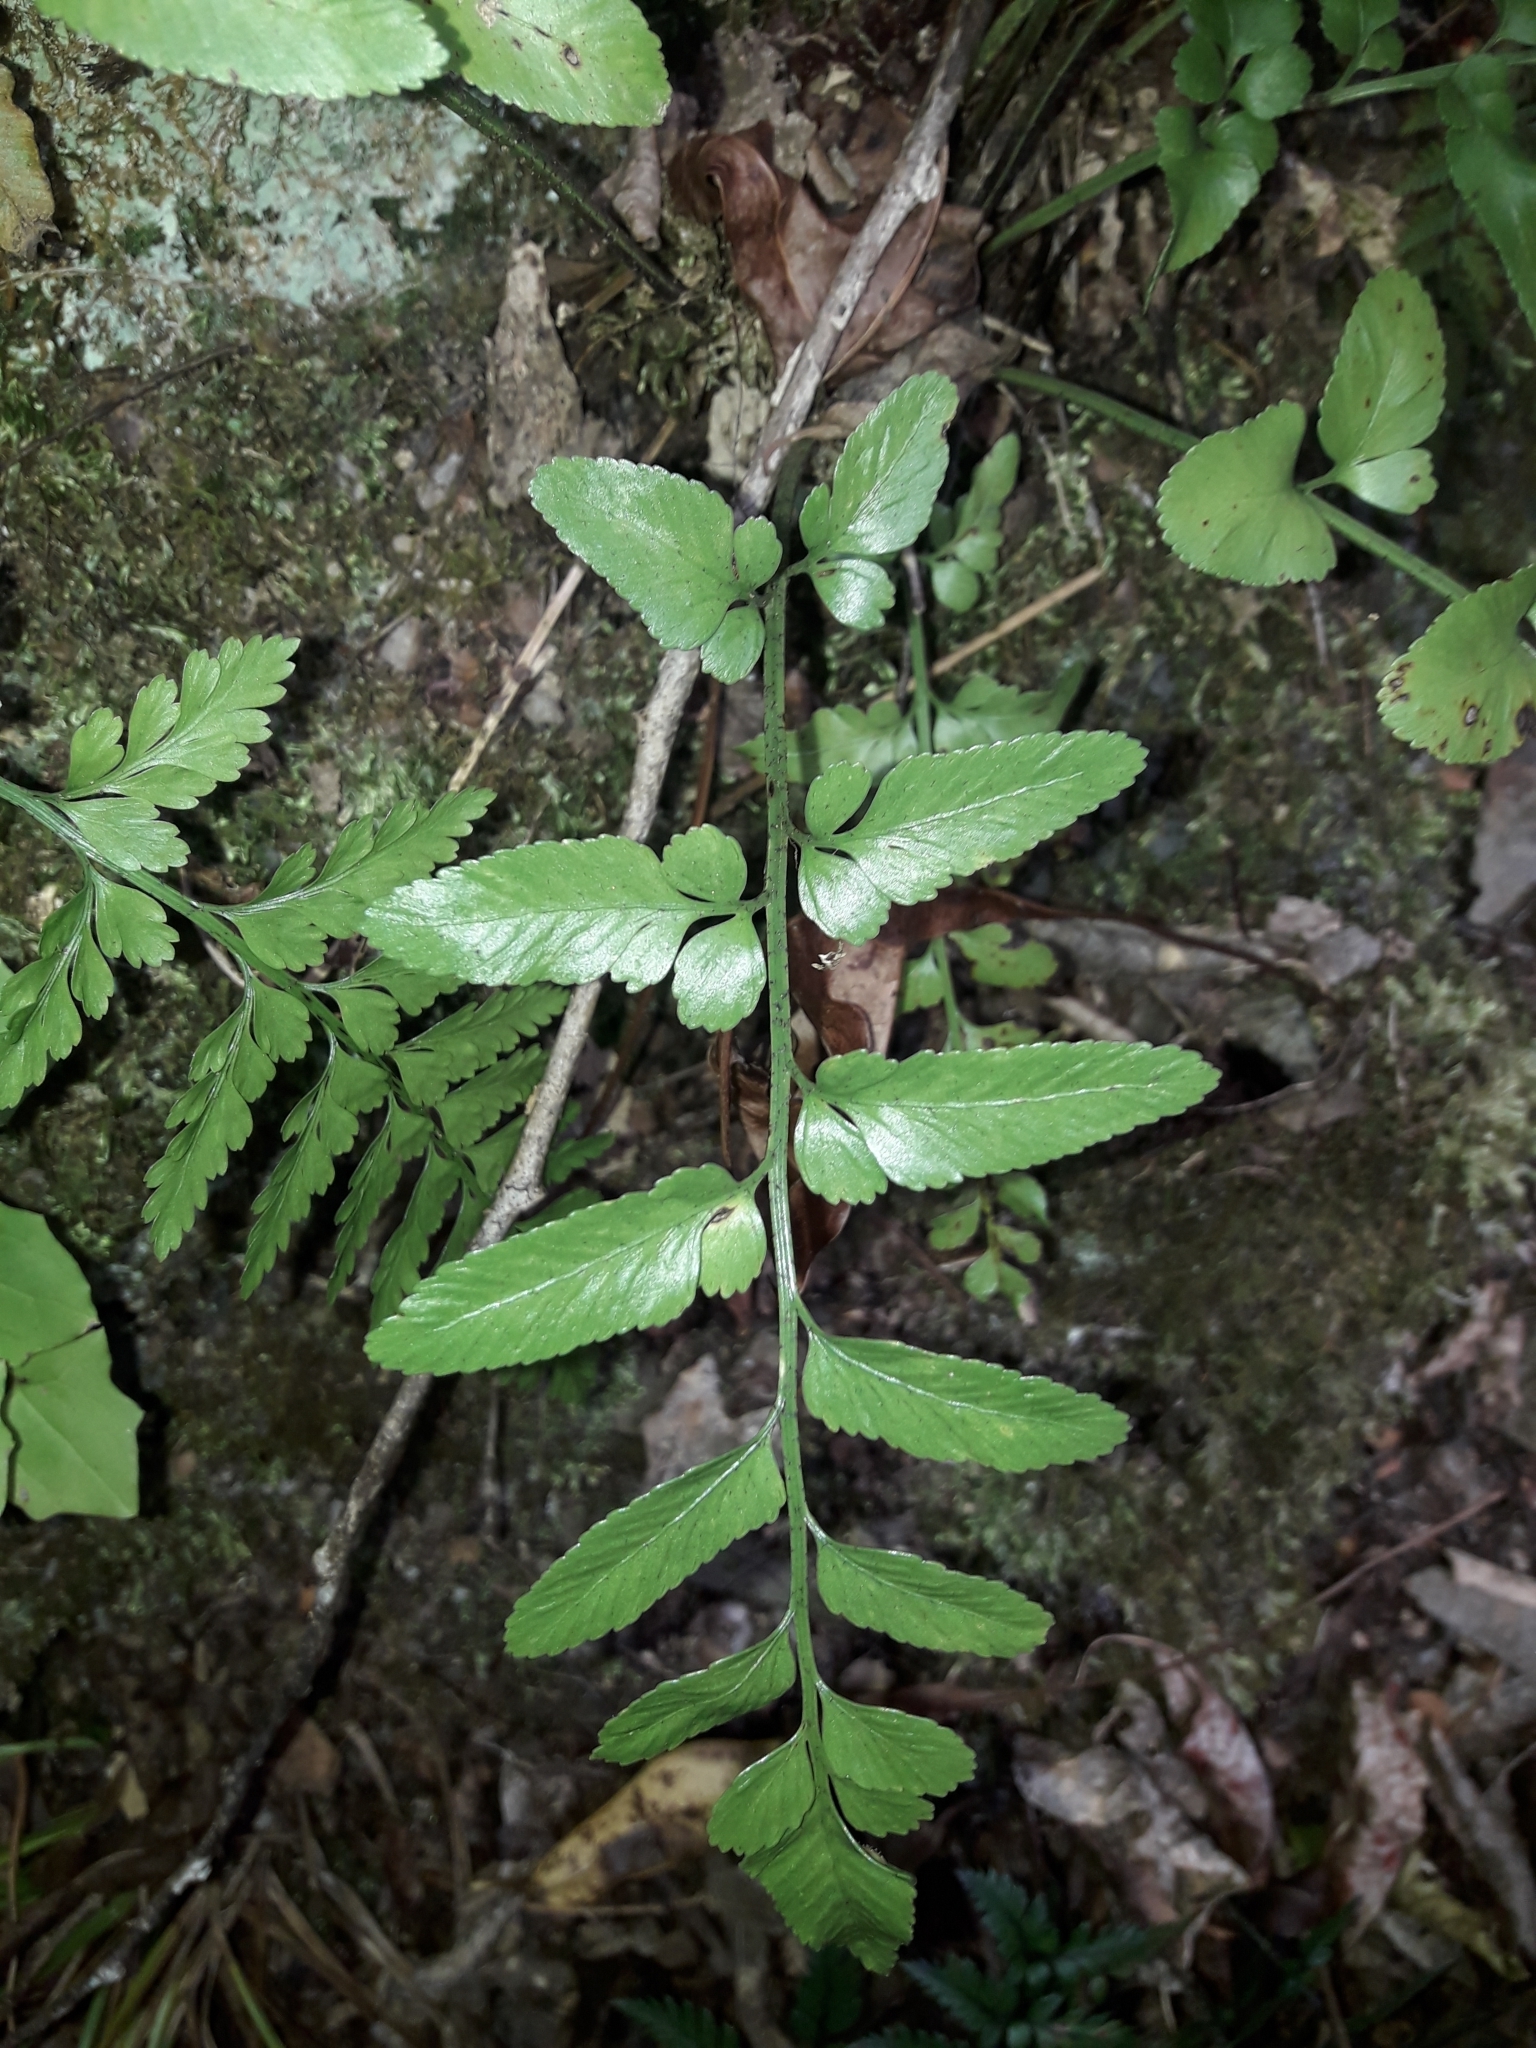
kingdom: Plantae
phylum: Tracheophyta
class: Polypodiopsida
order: Polypodiales
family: Aspleniaceae
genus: Asplenium
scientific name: Asplenium lyallii
